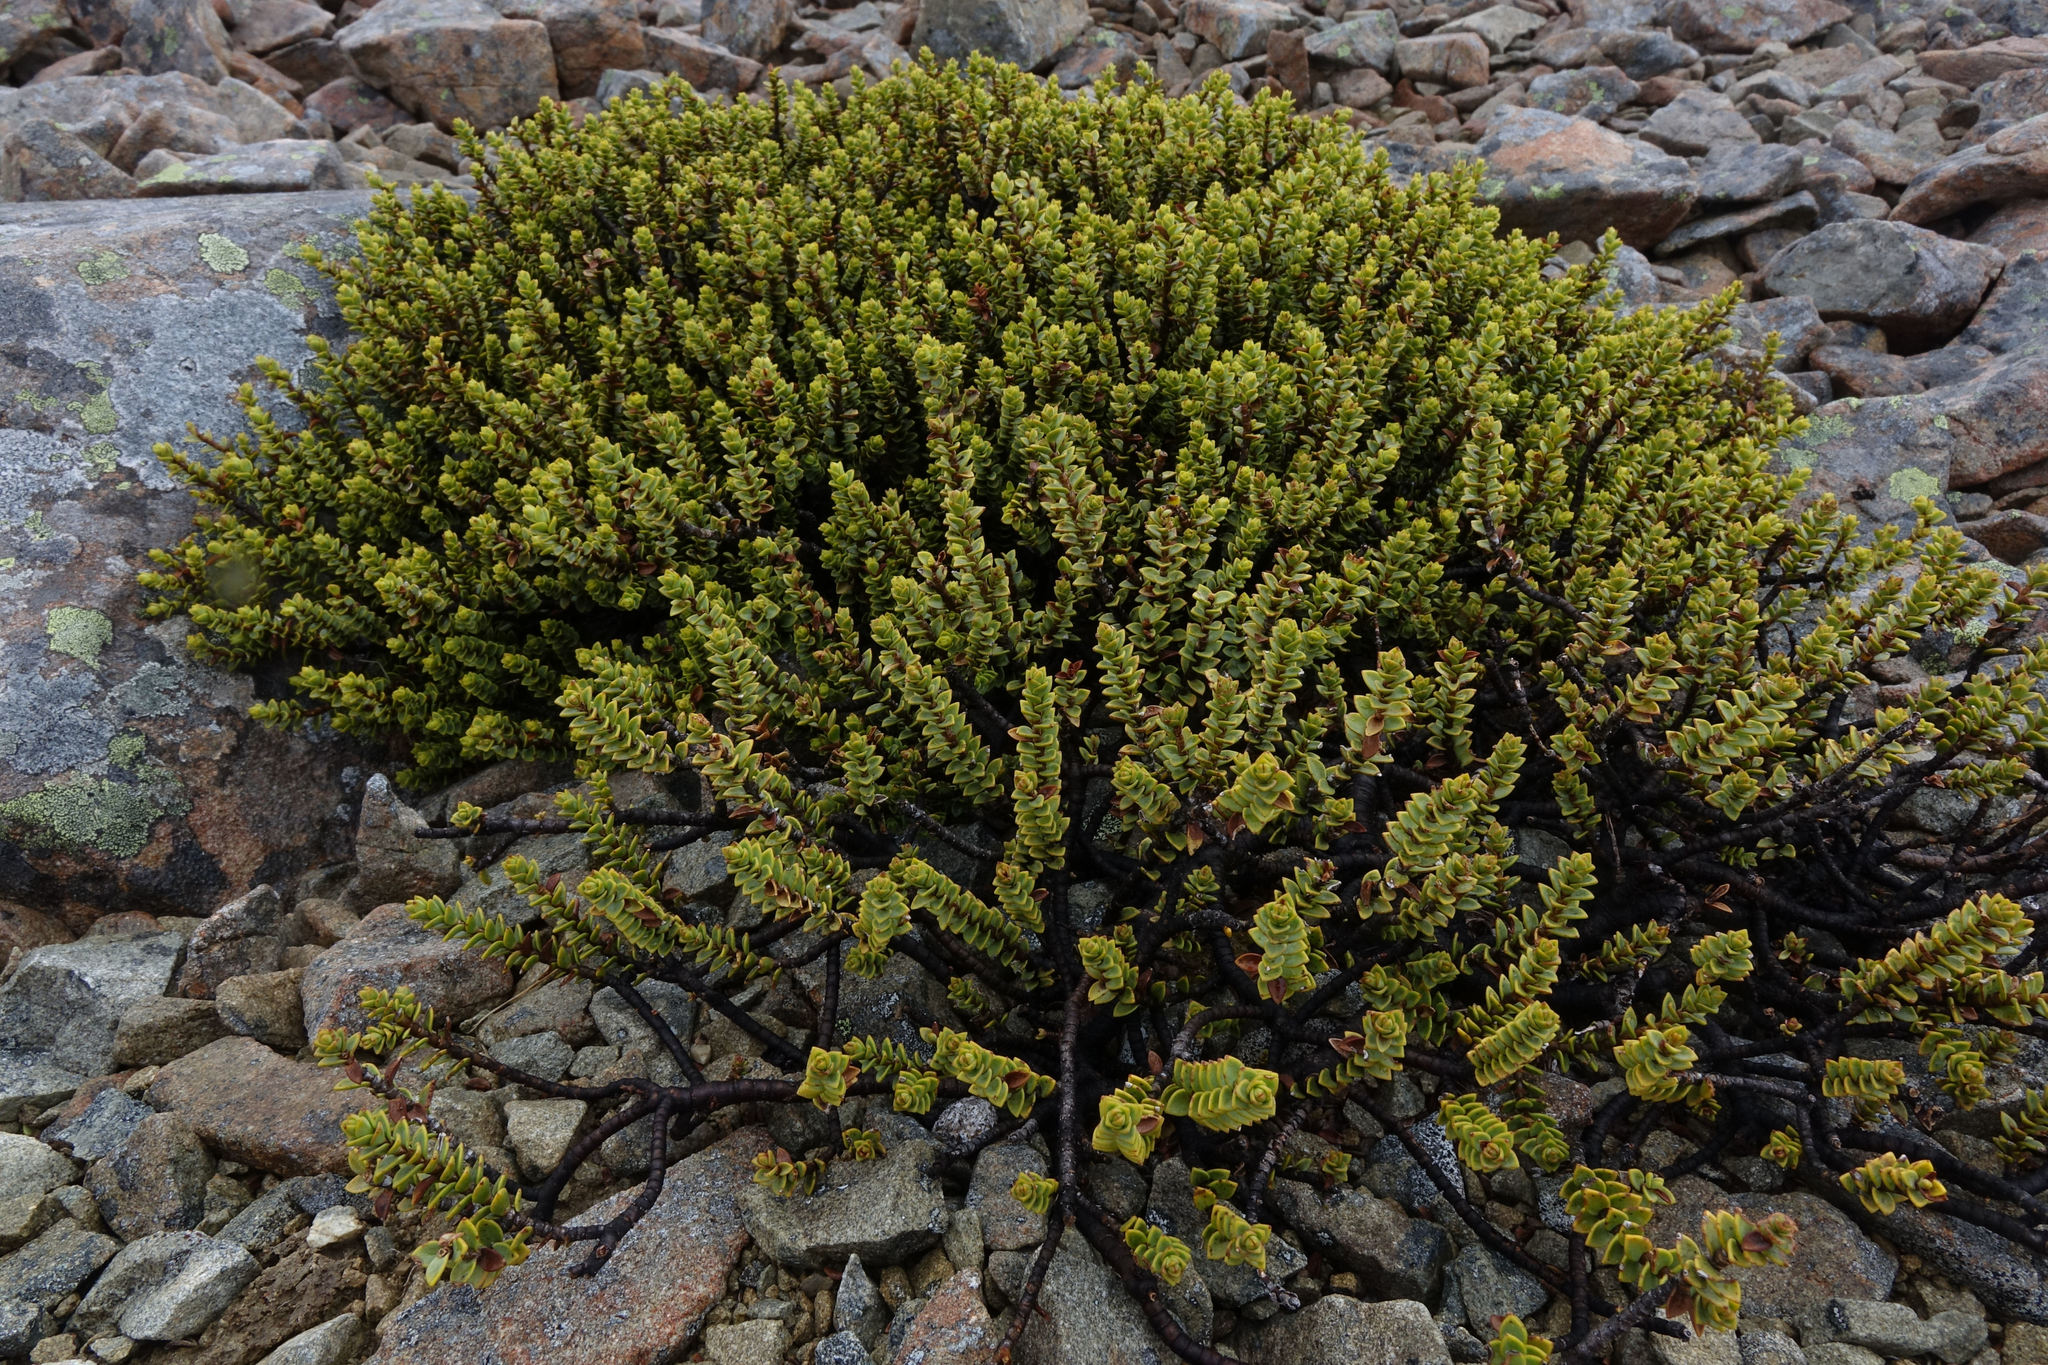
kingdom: Plantae
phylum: Tracheophyta
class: Magnoliopsida
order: Lamiales
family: Plantaginaceae
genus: Veronica
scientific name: Veronica buchananii
